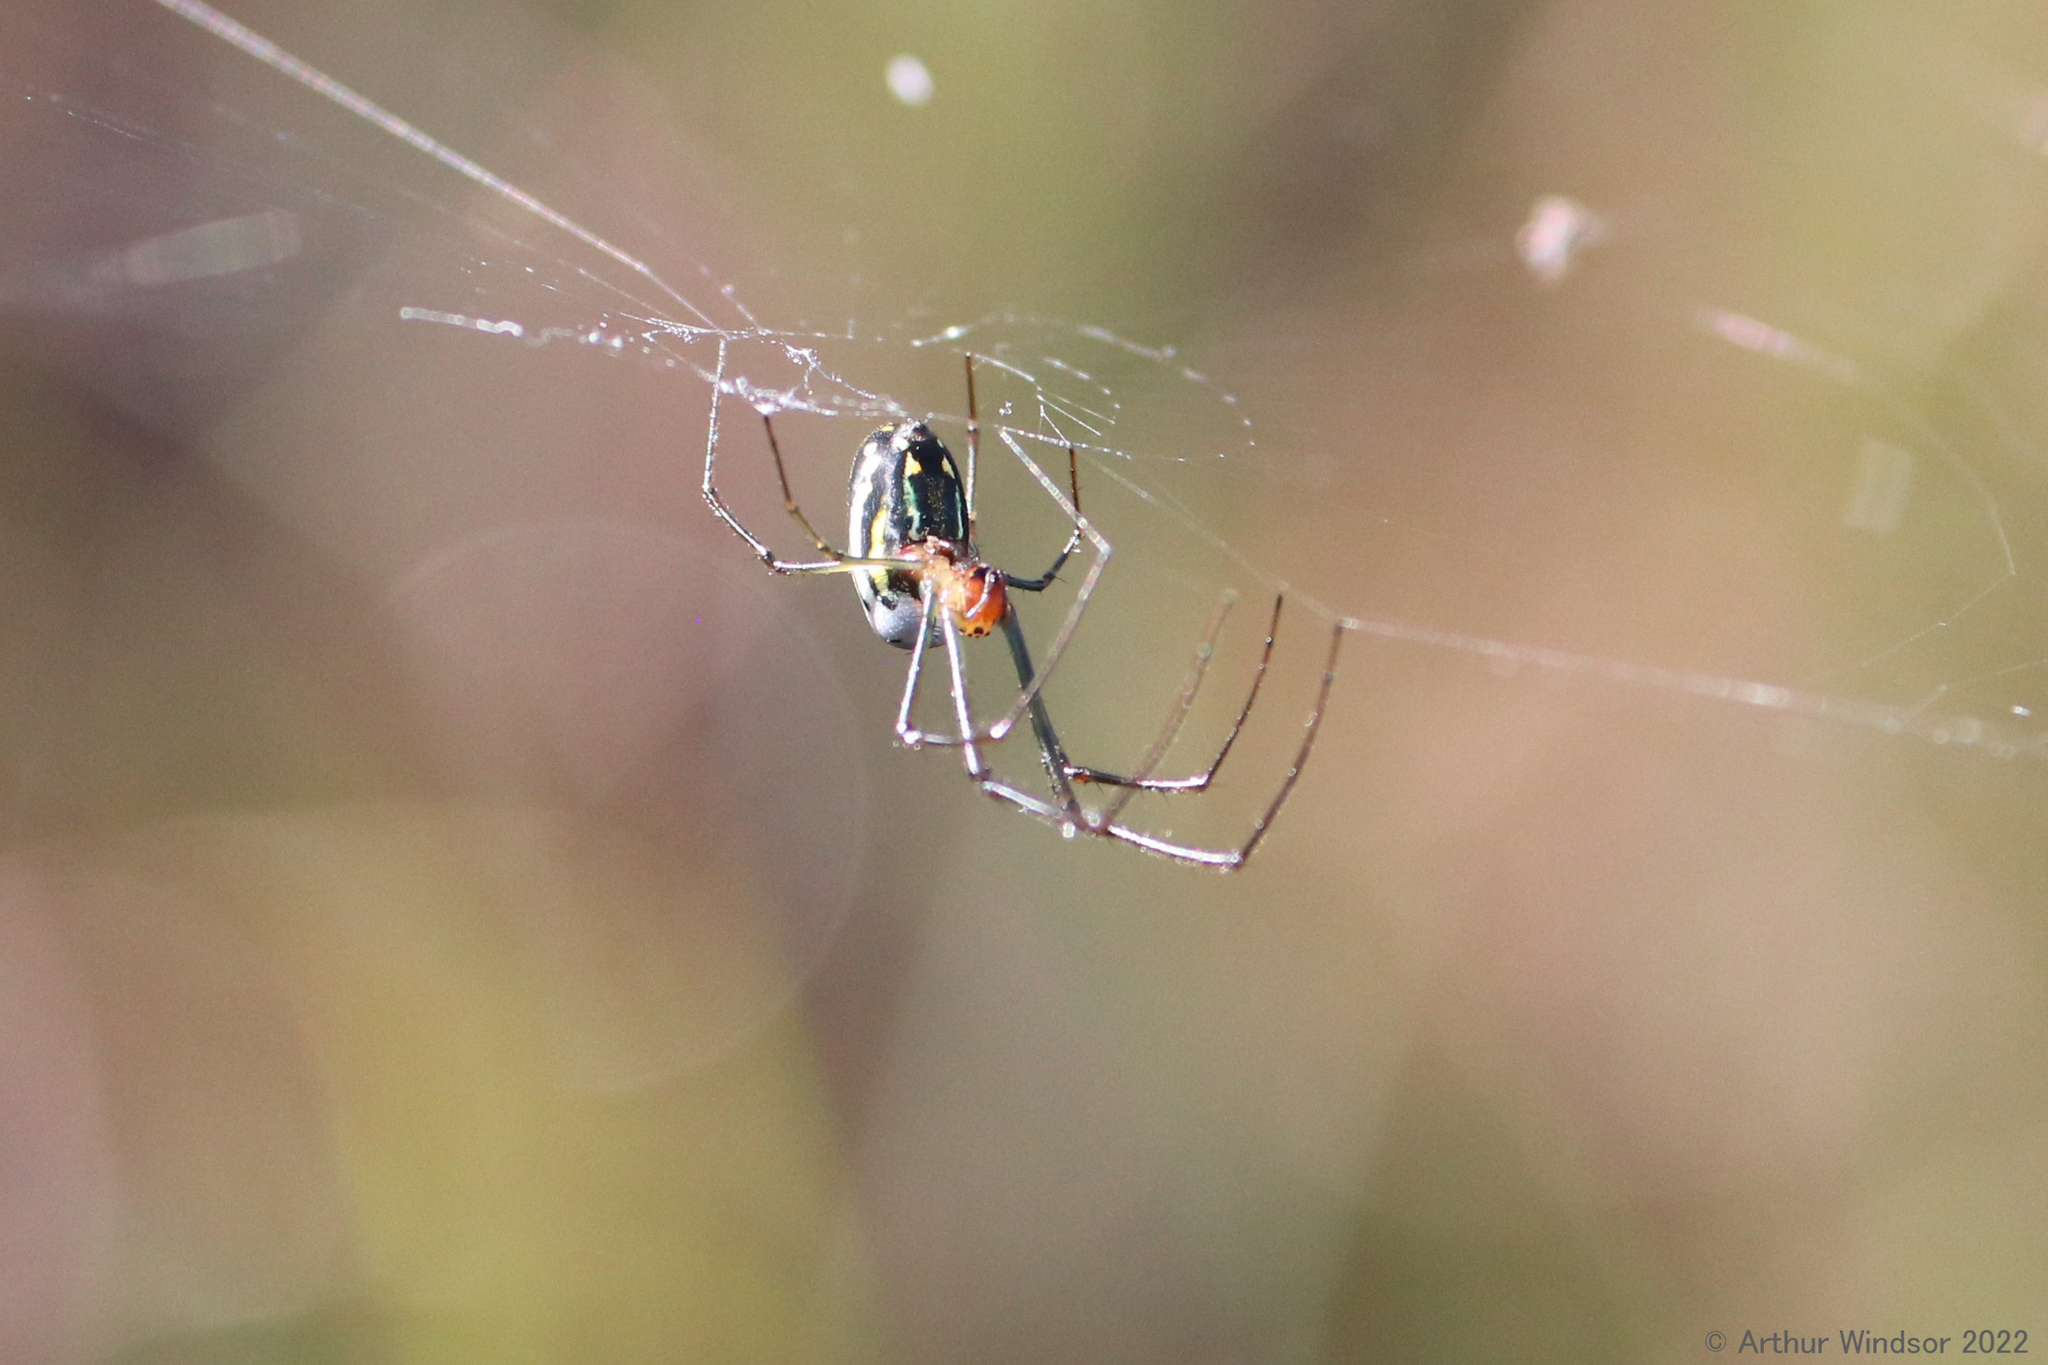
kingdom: Animalia
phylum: Arthropoda
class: Arachnida
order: Araneae
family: Tetragnathidae
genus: Leucauge
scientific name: Leucauge argyra
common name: Longjawed orb weavers
